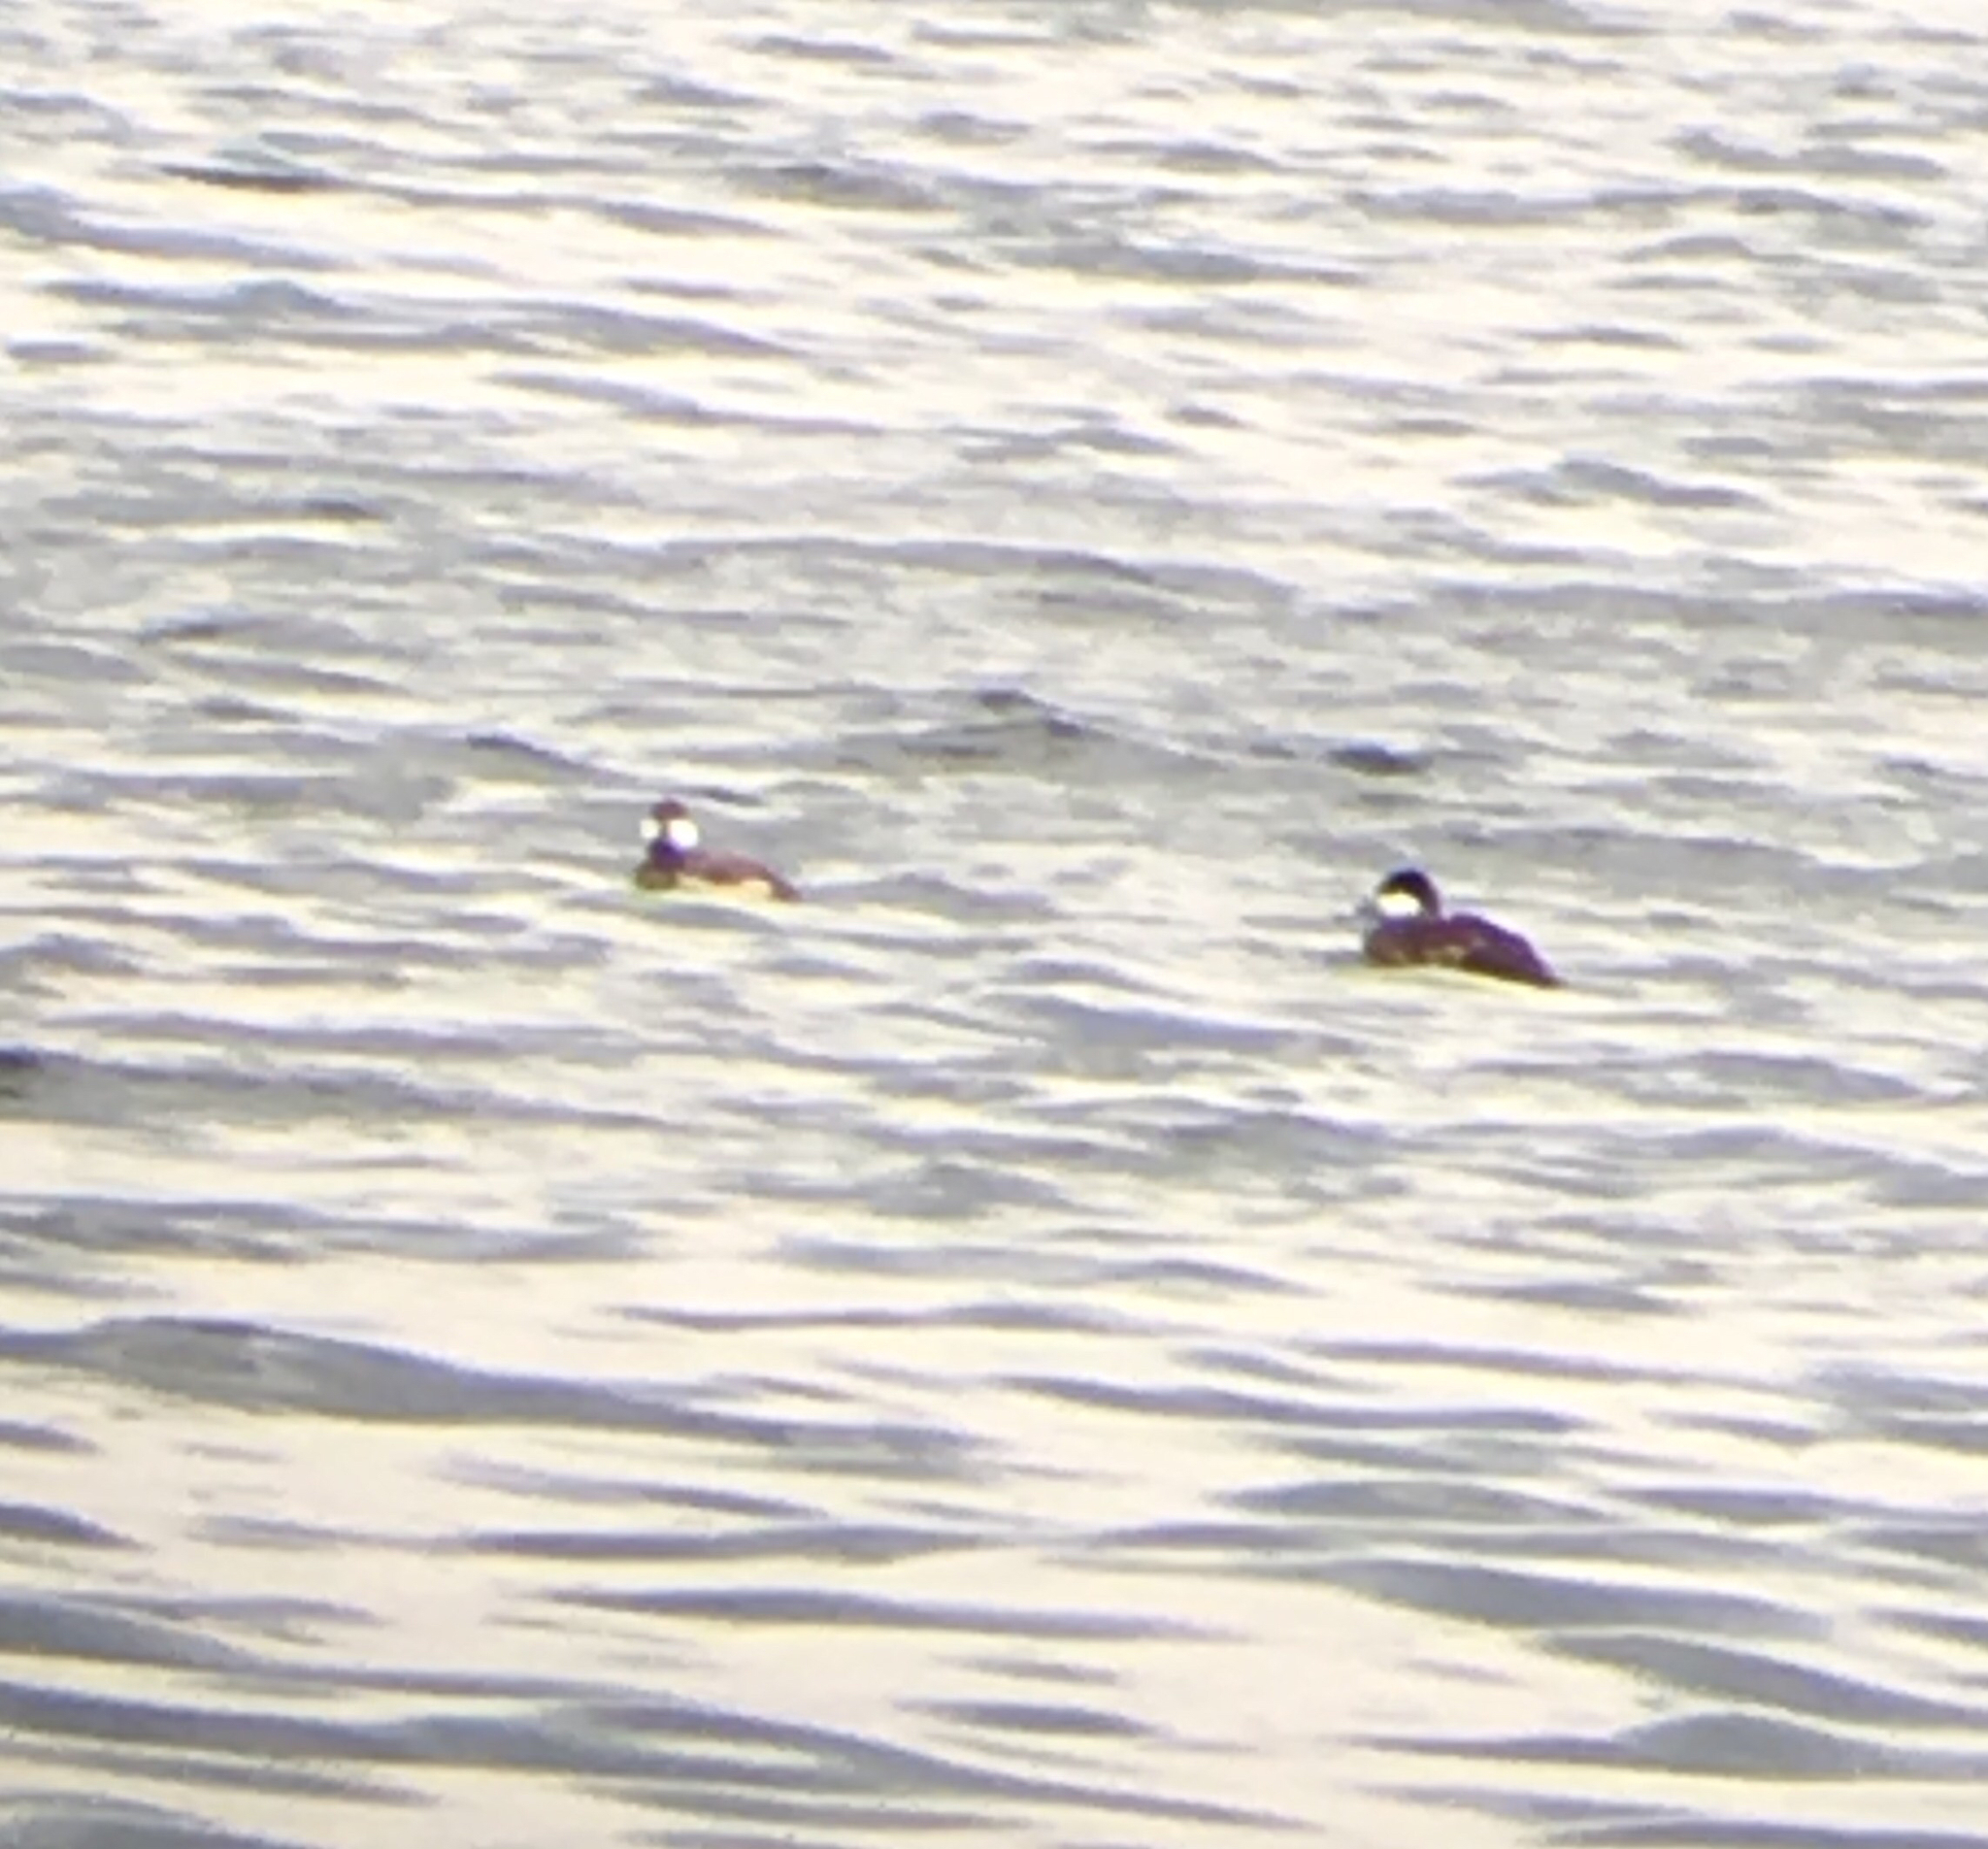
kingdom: Animalia
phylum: Chordata
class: Aves
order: Anseriformes
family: Anatidae
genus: Oxyura
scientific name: Oxyura jamaicensis
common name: Ruddy duck
